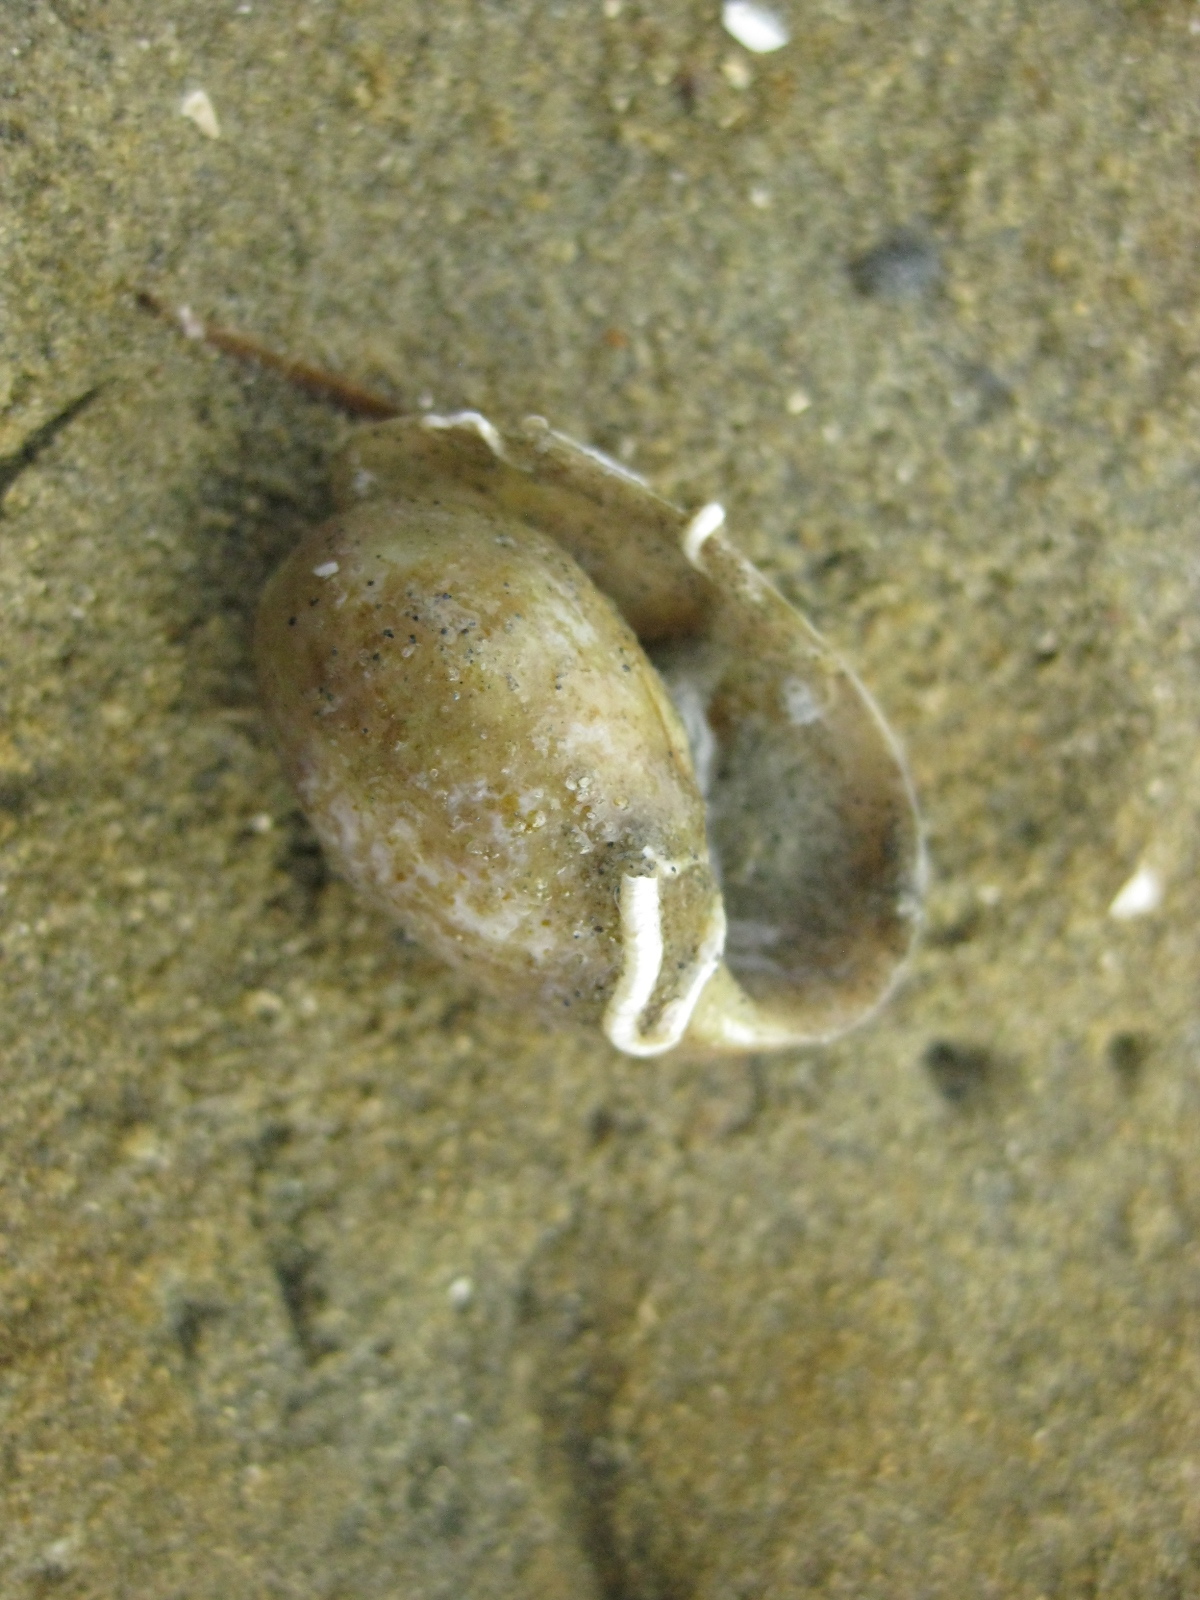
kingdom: Animalia
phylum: Mollusca
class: Gastropoda
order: Cephalaspidea
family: Bullidae
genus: Bulla
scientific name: Bulla quoyii
